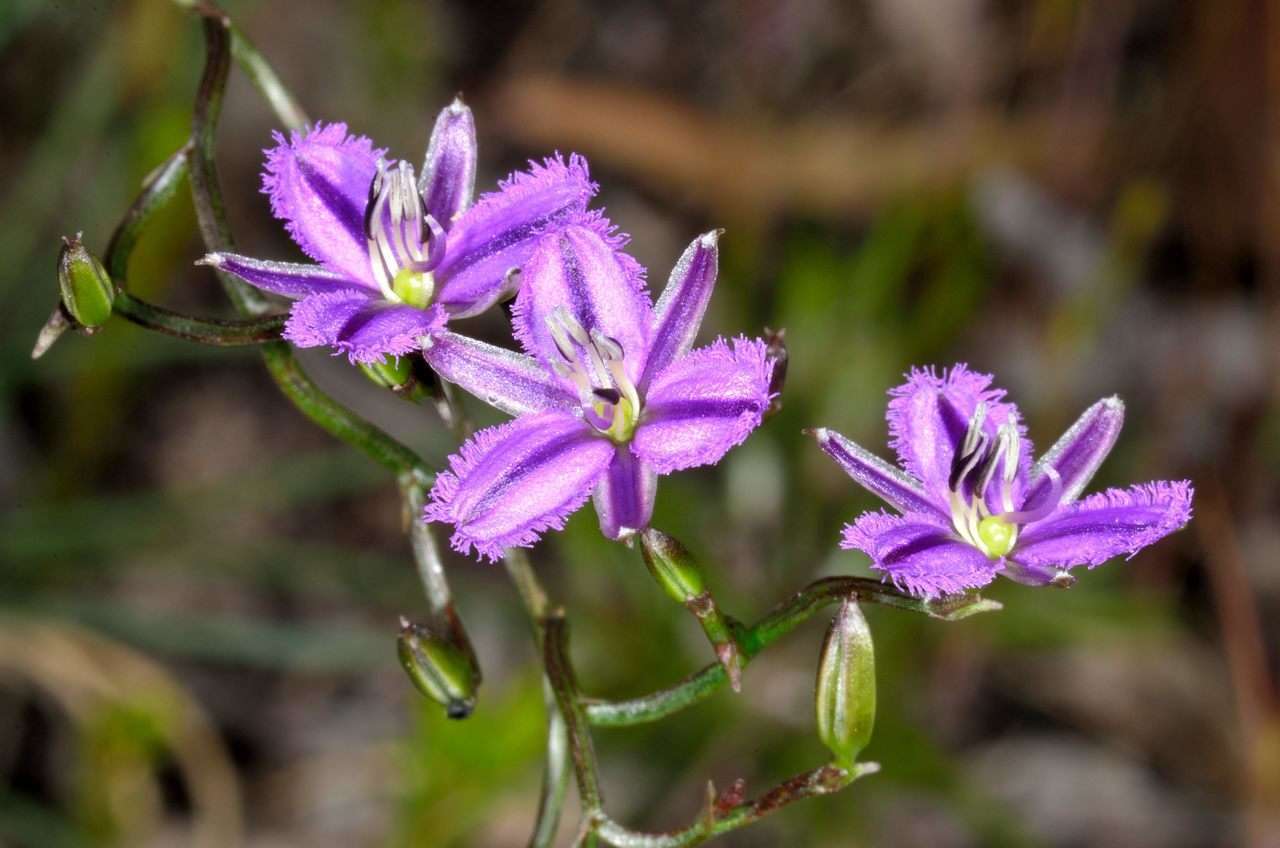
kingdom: Plantae
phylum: Tracheophyta
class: Liliopsida
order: Asparagales
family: Asparagaceae
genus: Thysanotus
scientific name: Thysanotus patersonii
